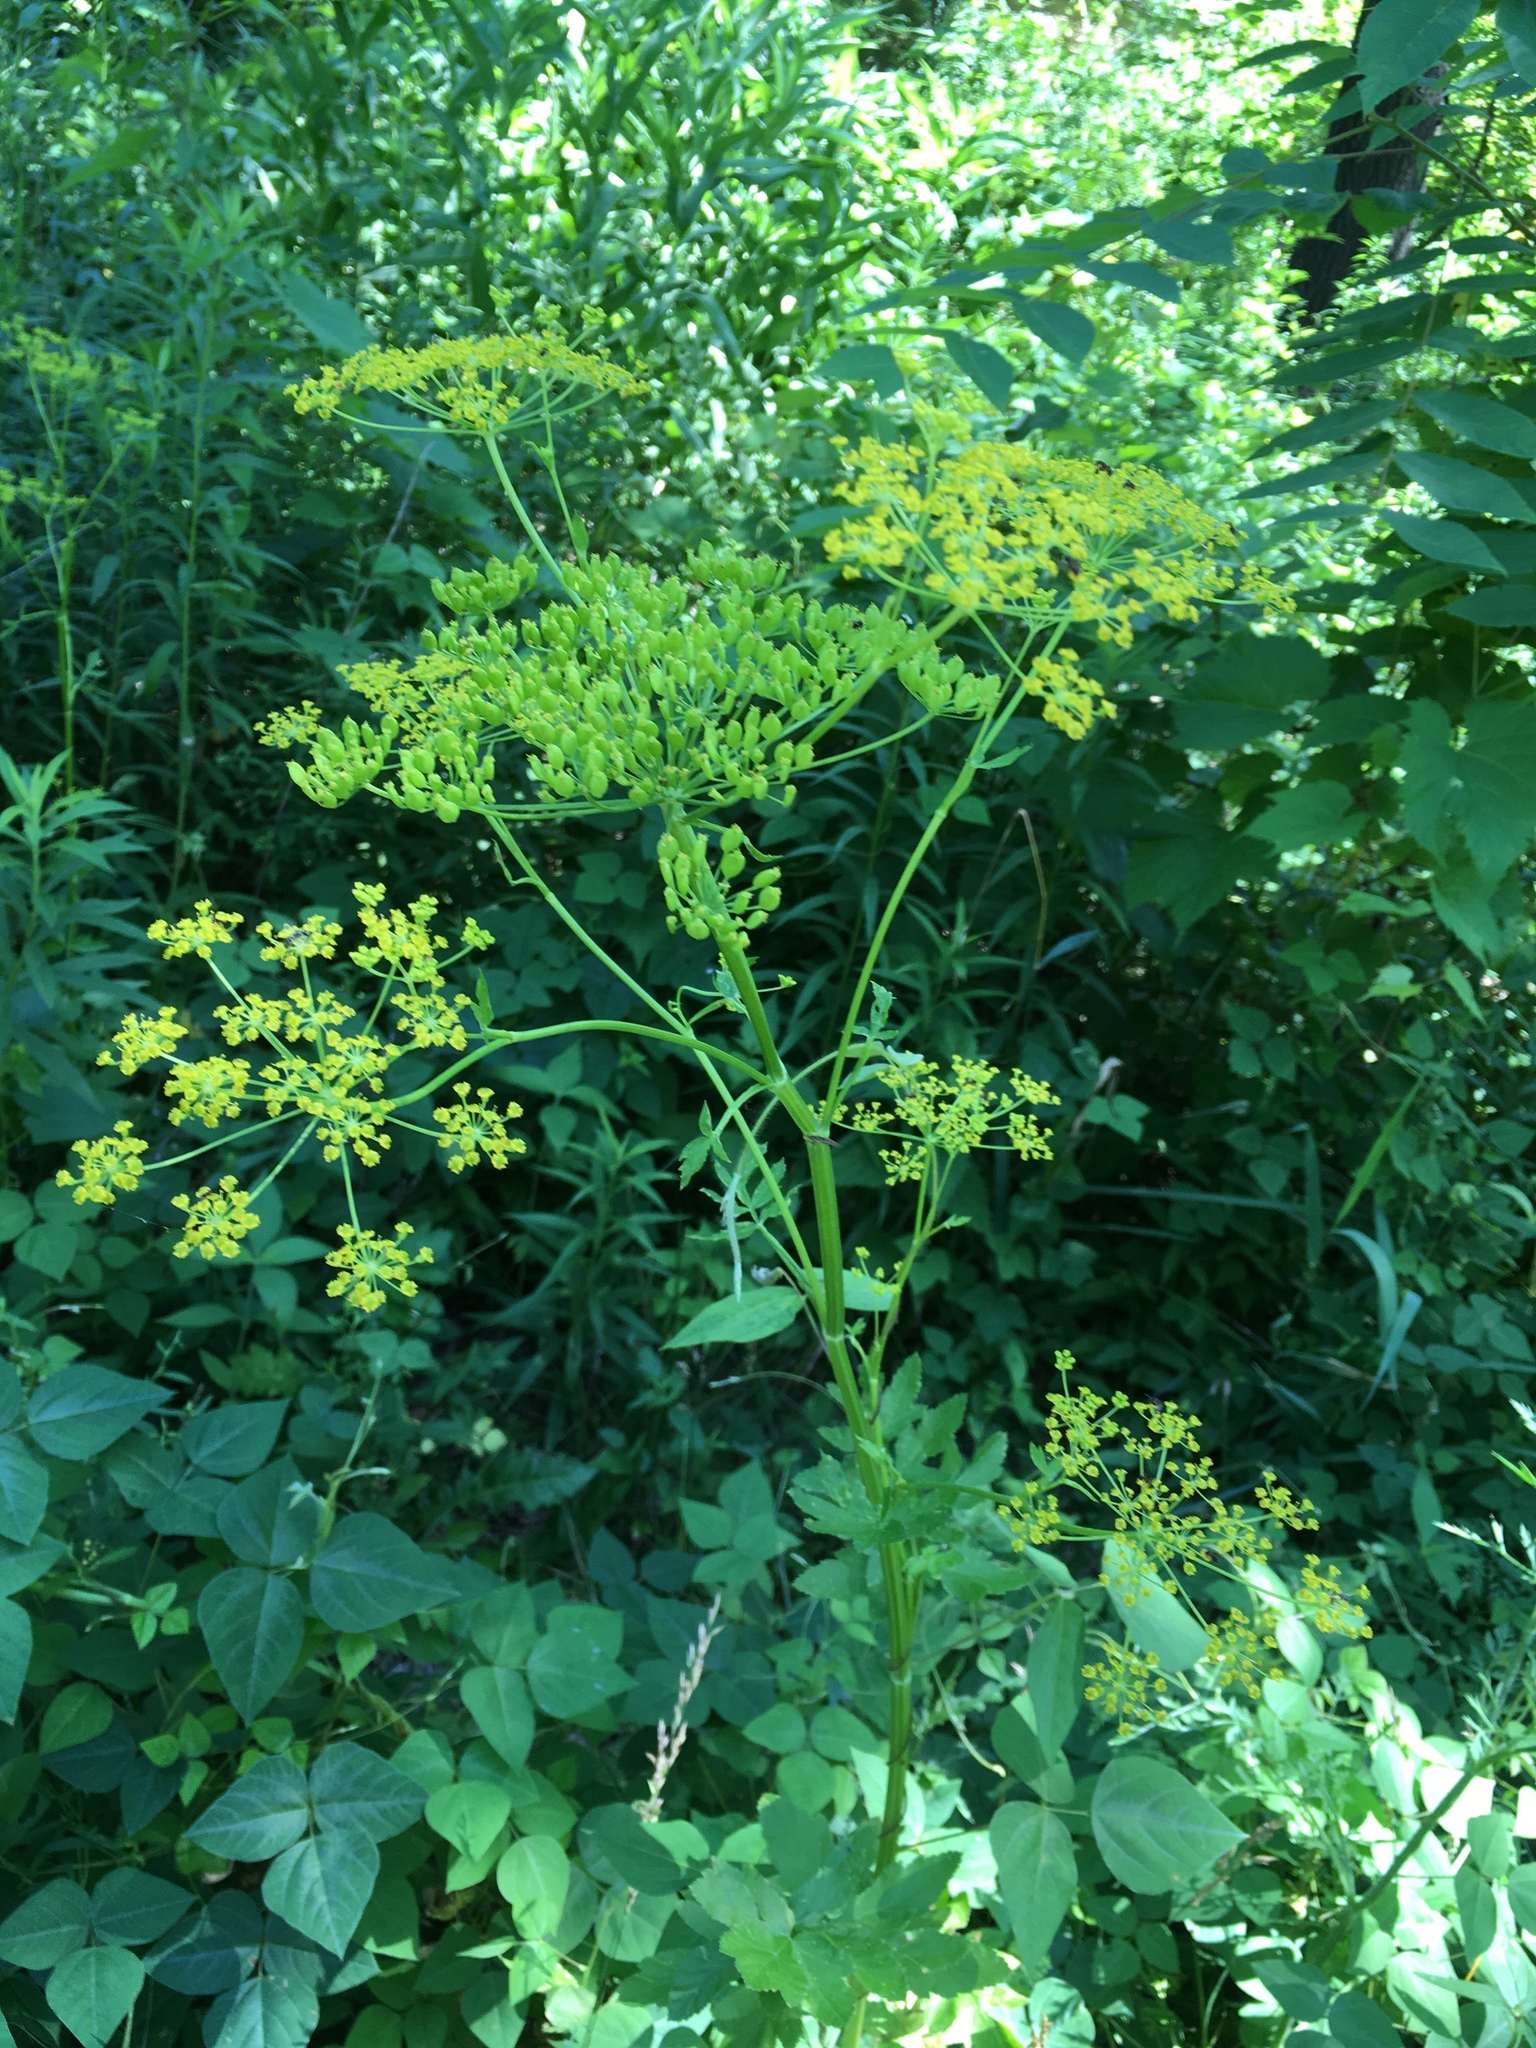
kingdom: Plantae
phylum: Tracheophyta
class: Magnoliopsida
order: Apiales
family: Apiaceae
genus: Pastinaca
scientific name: Pastinaca sativa
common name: Wild parsnip
